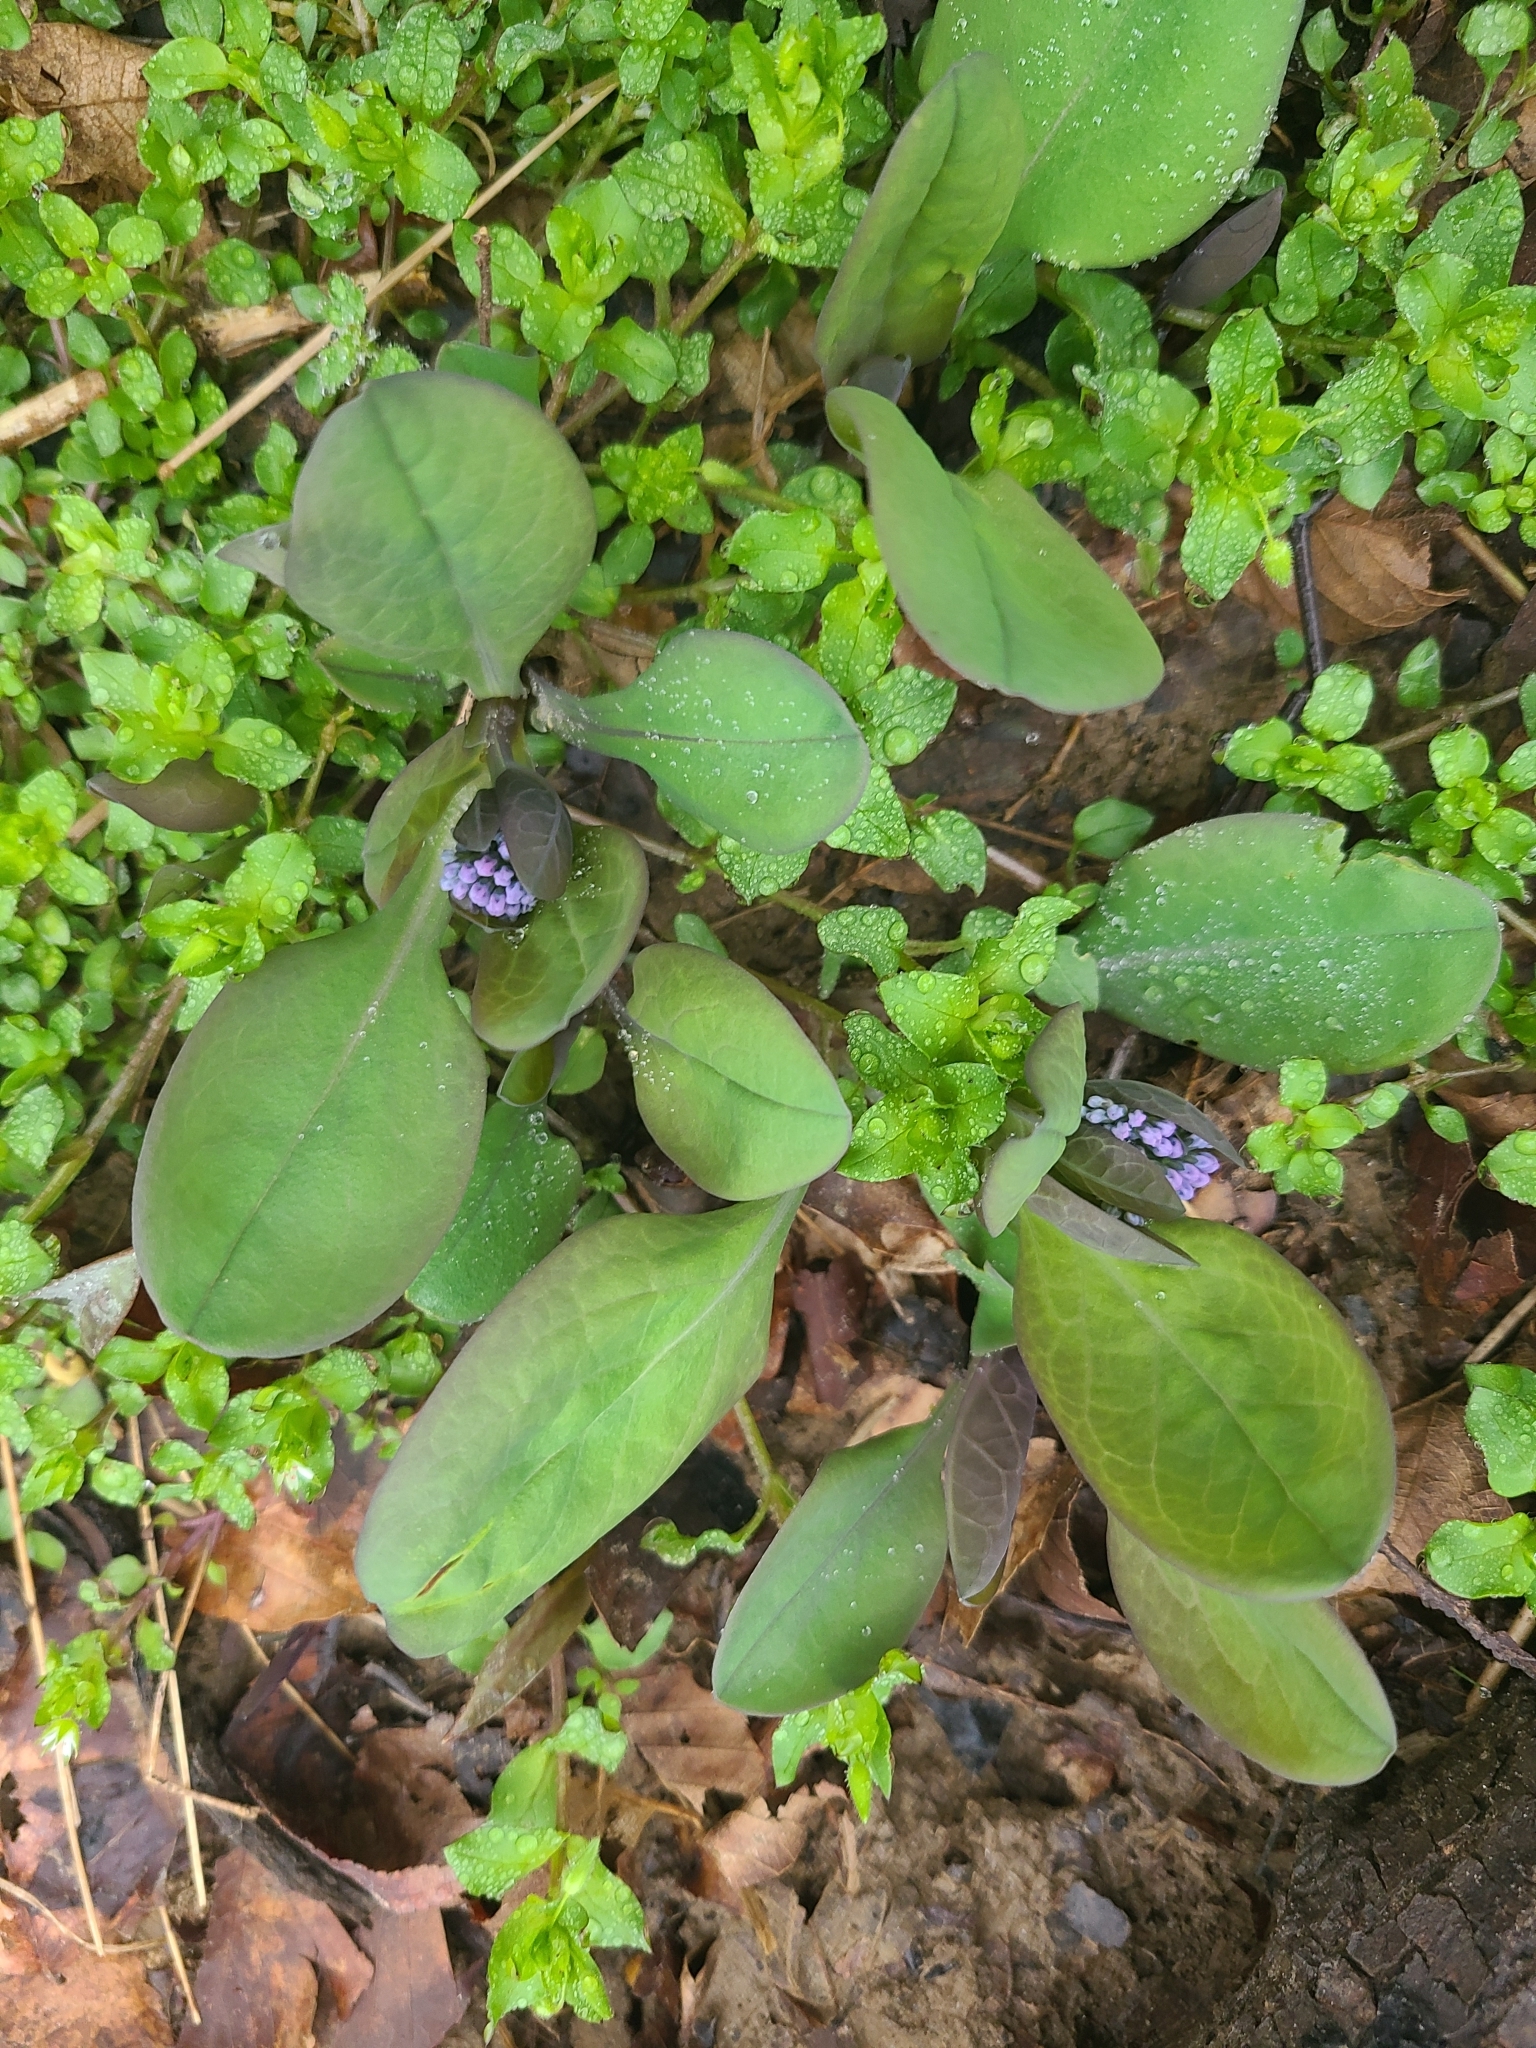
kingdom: Plantae
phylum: Tracheophyta
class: Magnoliopsida
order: Boraginales
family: Boraginaceae
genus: Mertensia
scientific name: Mertensia virginica
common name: Virginia bluebells
